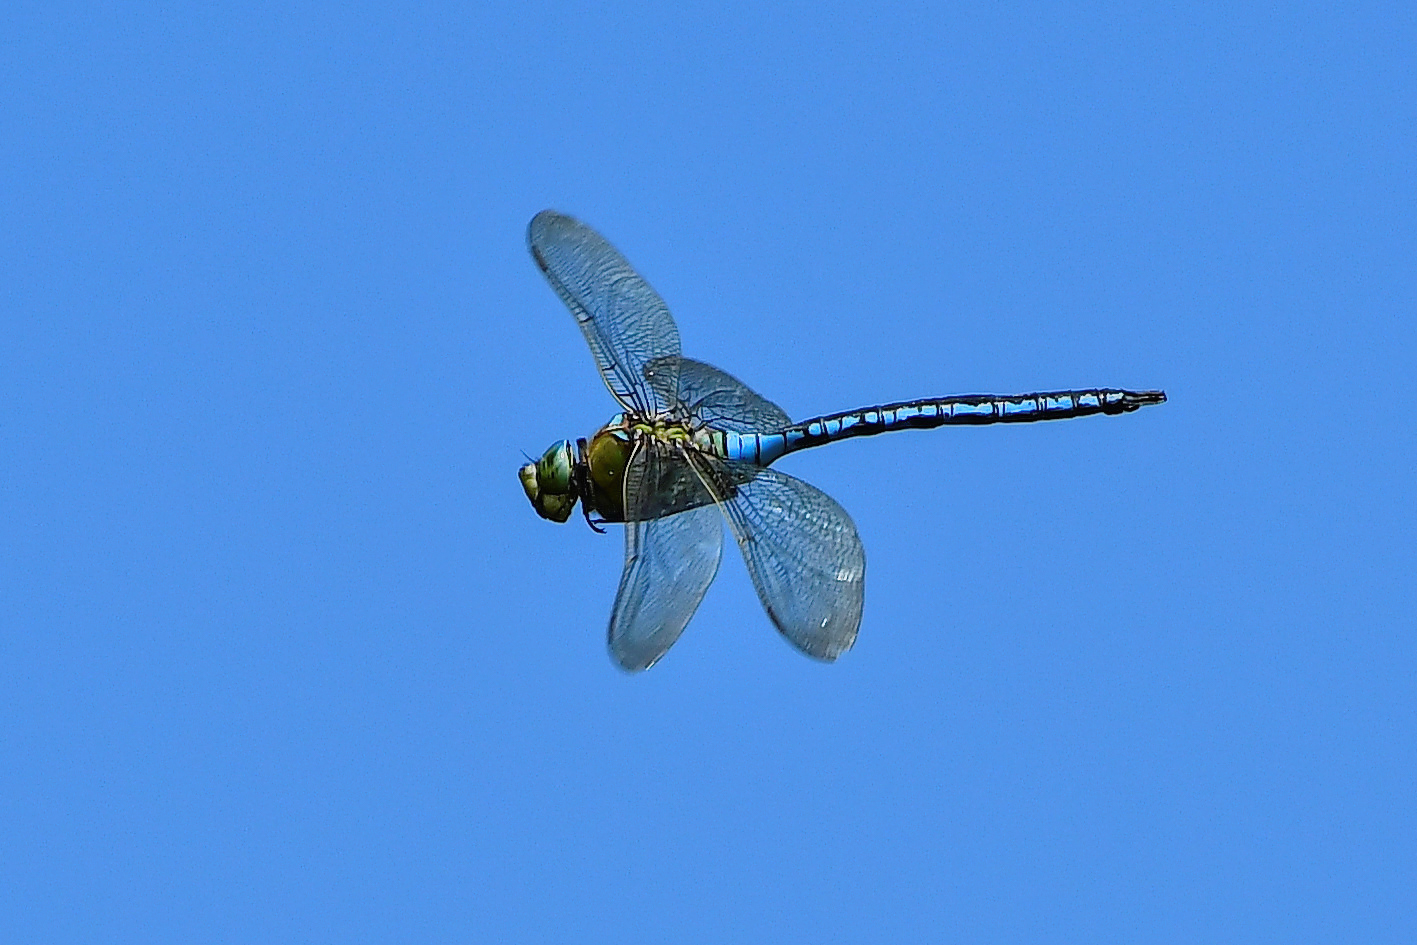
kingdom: Animalia
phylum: Arthropoda
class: Insecta
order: Odonata
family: Aeshnidae
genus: Anax
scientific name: Anax imperator
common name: Emperor dragonfly
